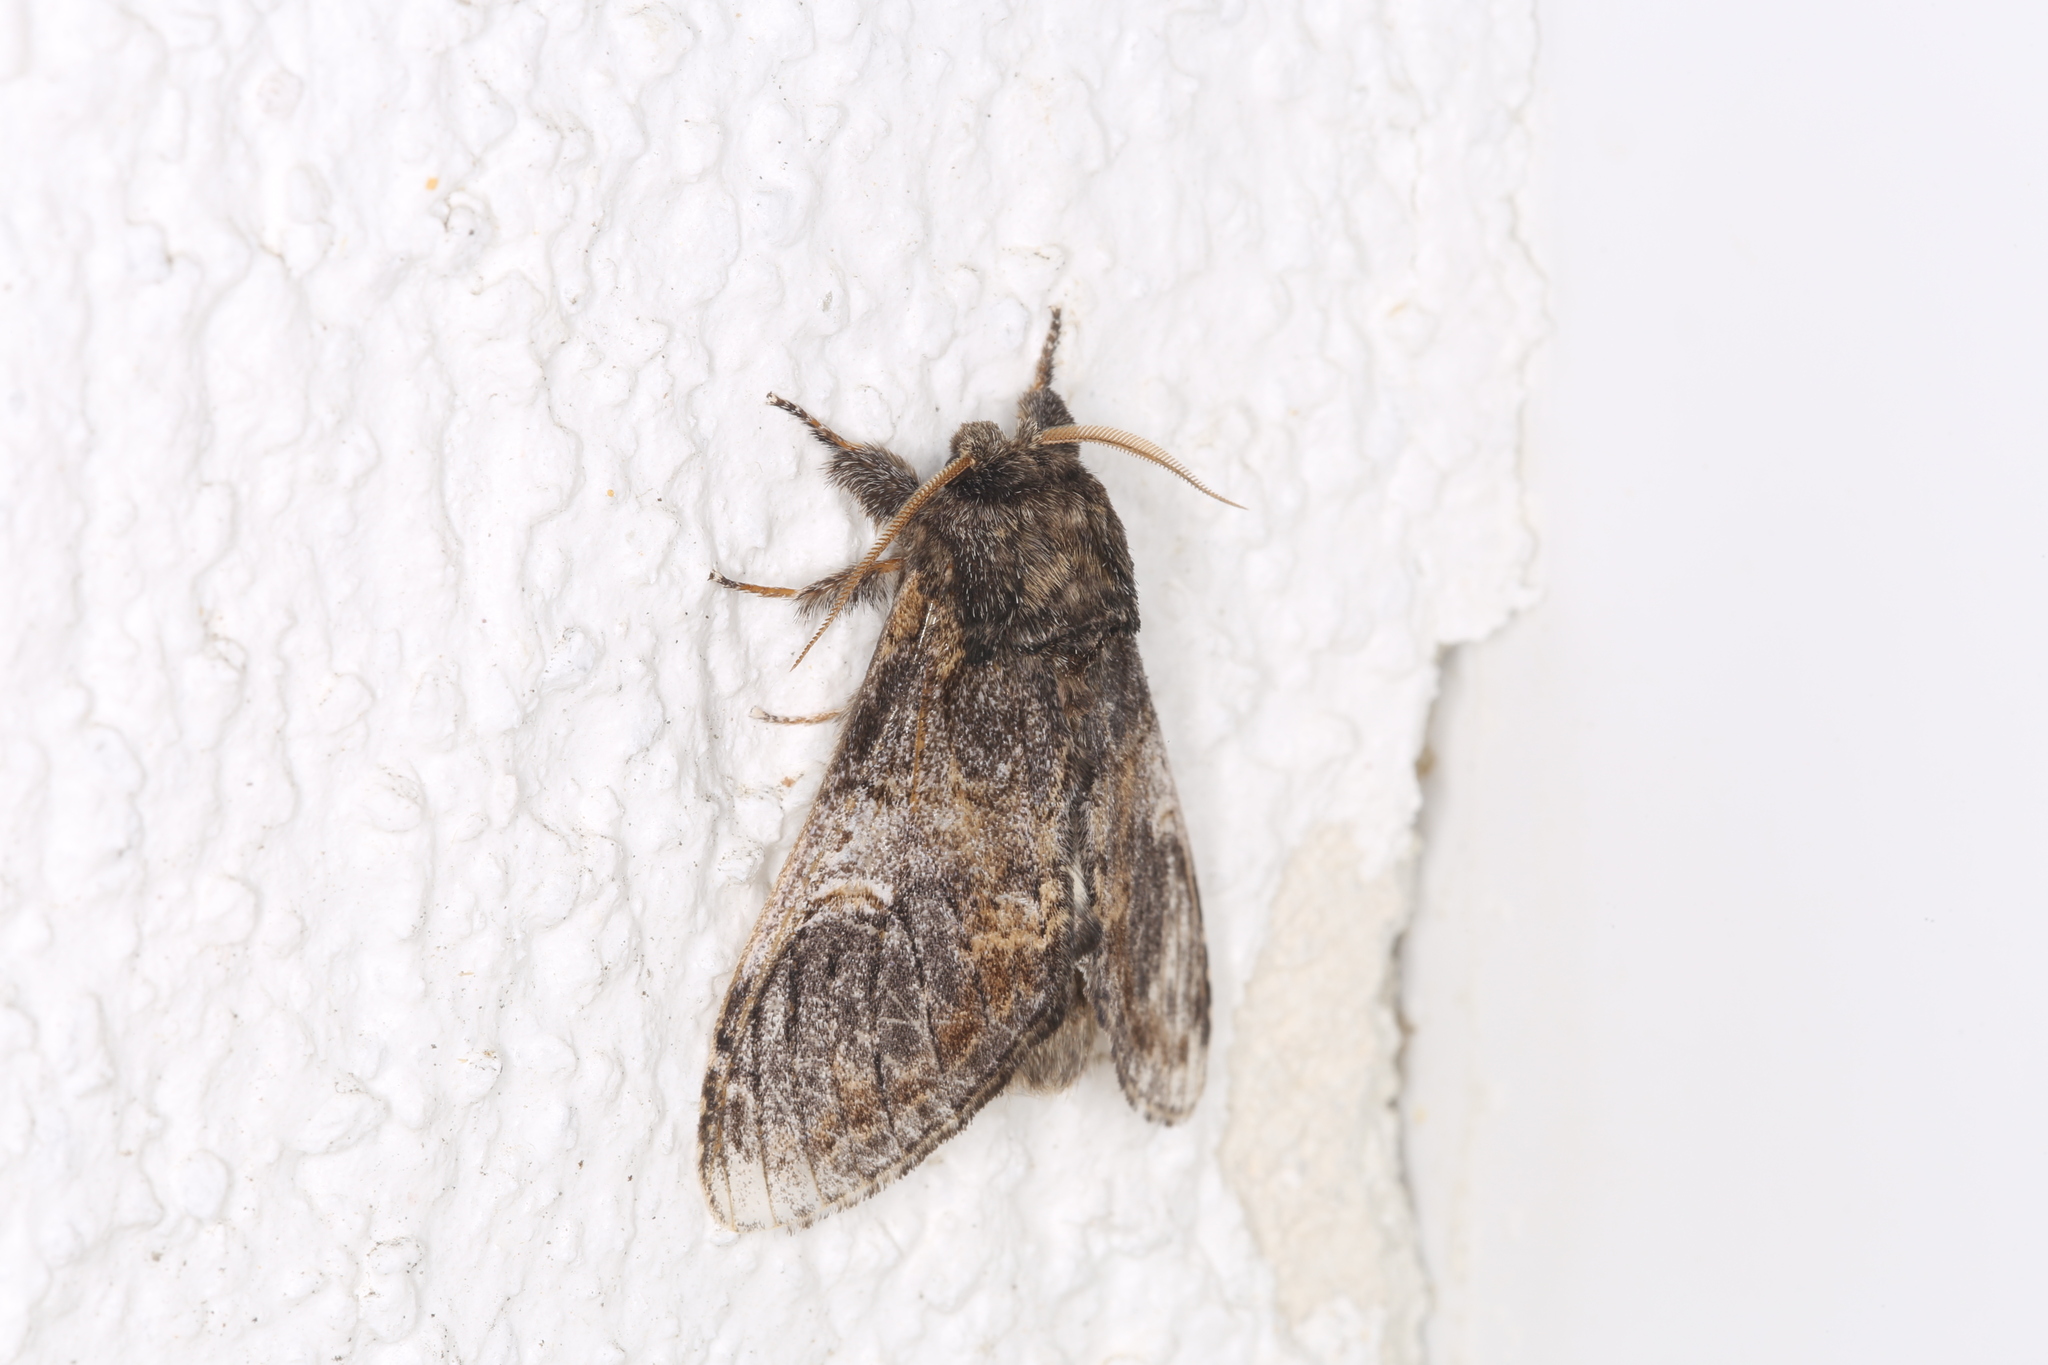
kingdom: Animalia
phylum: Arthropoda
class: Insecta
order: Lepidoptera
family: Notodontidae
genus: Notodonta
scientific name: Notodonta tritophus
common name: Three-humped prominent
